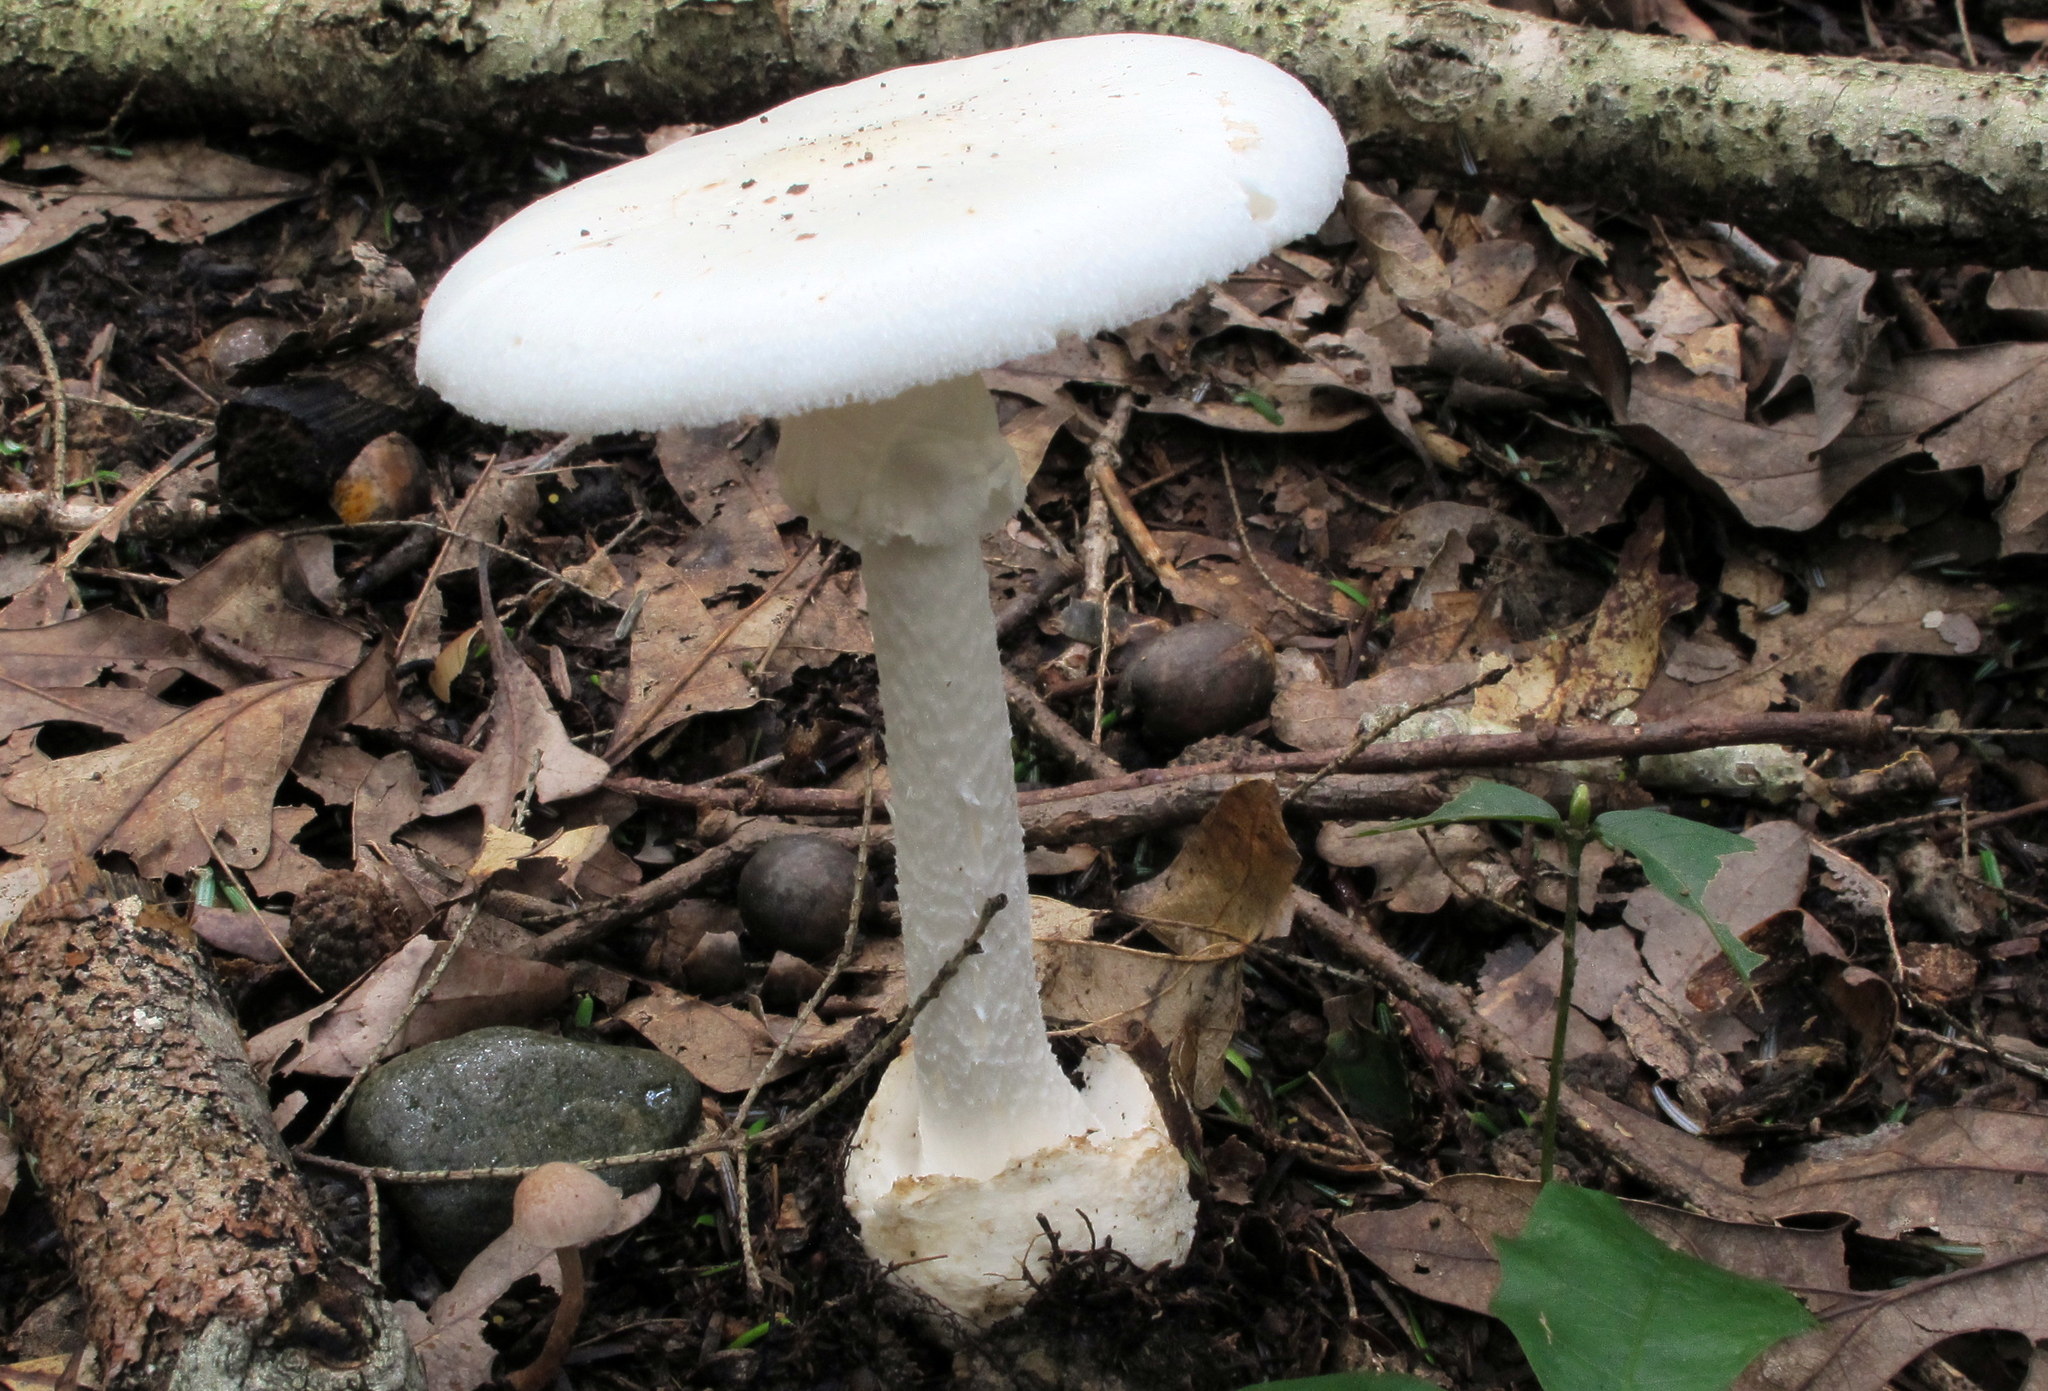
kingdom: Fungi
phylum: Basidiomycota
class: Agaricomycetes
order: Agaricales
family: Amanitaceae
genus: Amanita
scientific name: Amanita bisporigera
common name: Eastern north american destroying angel
